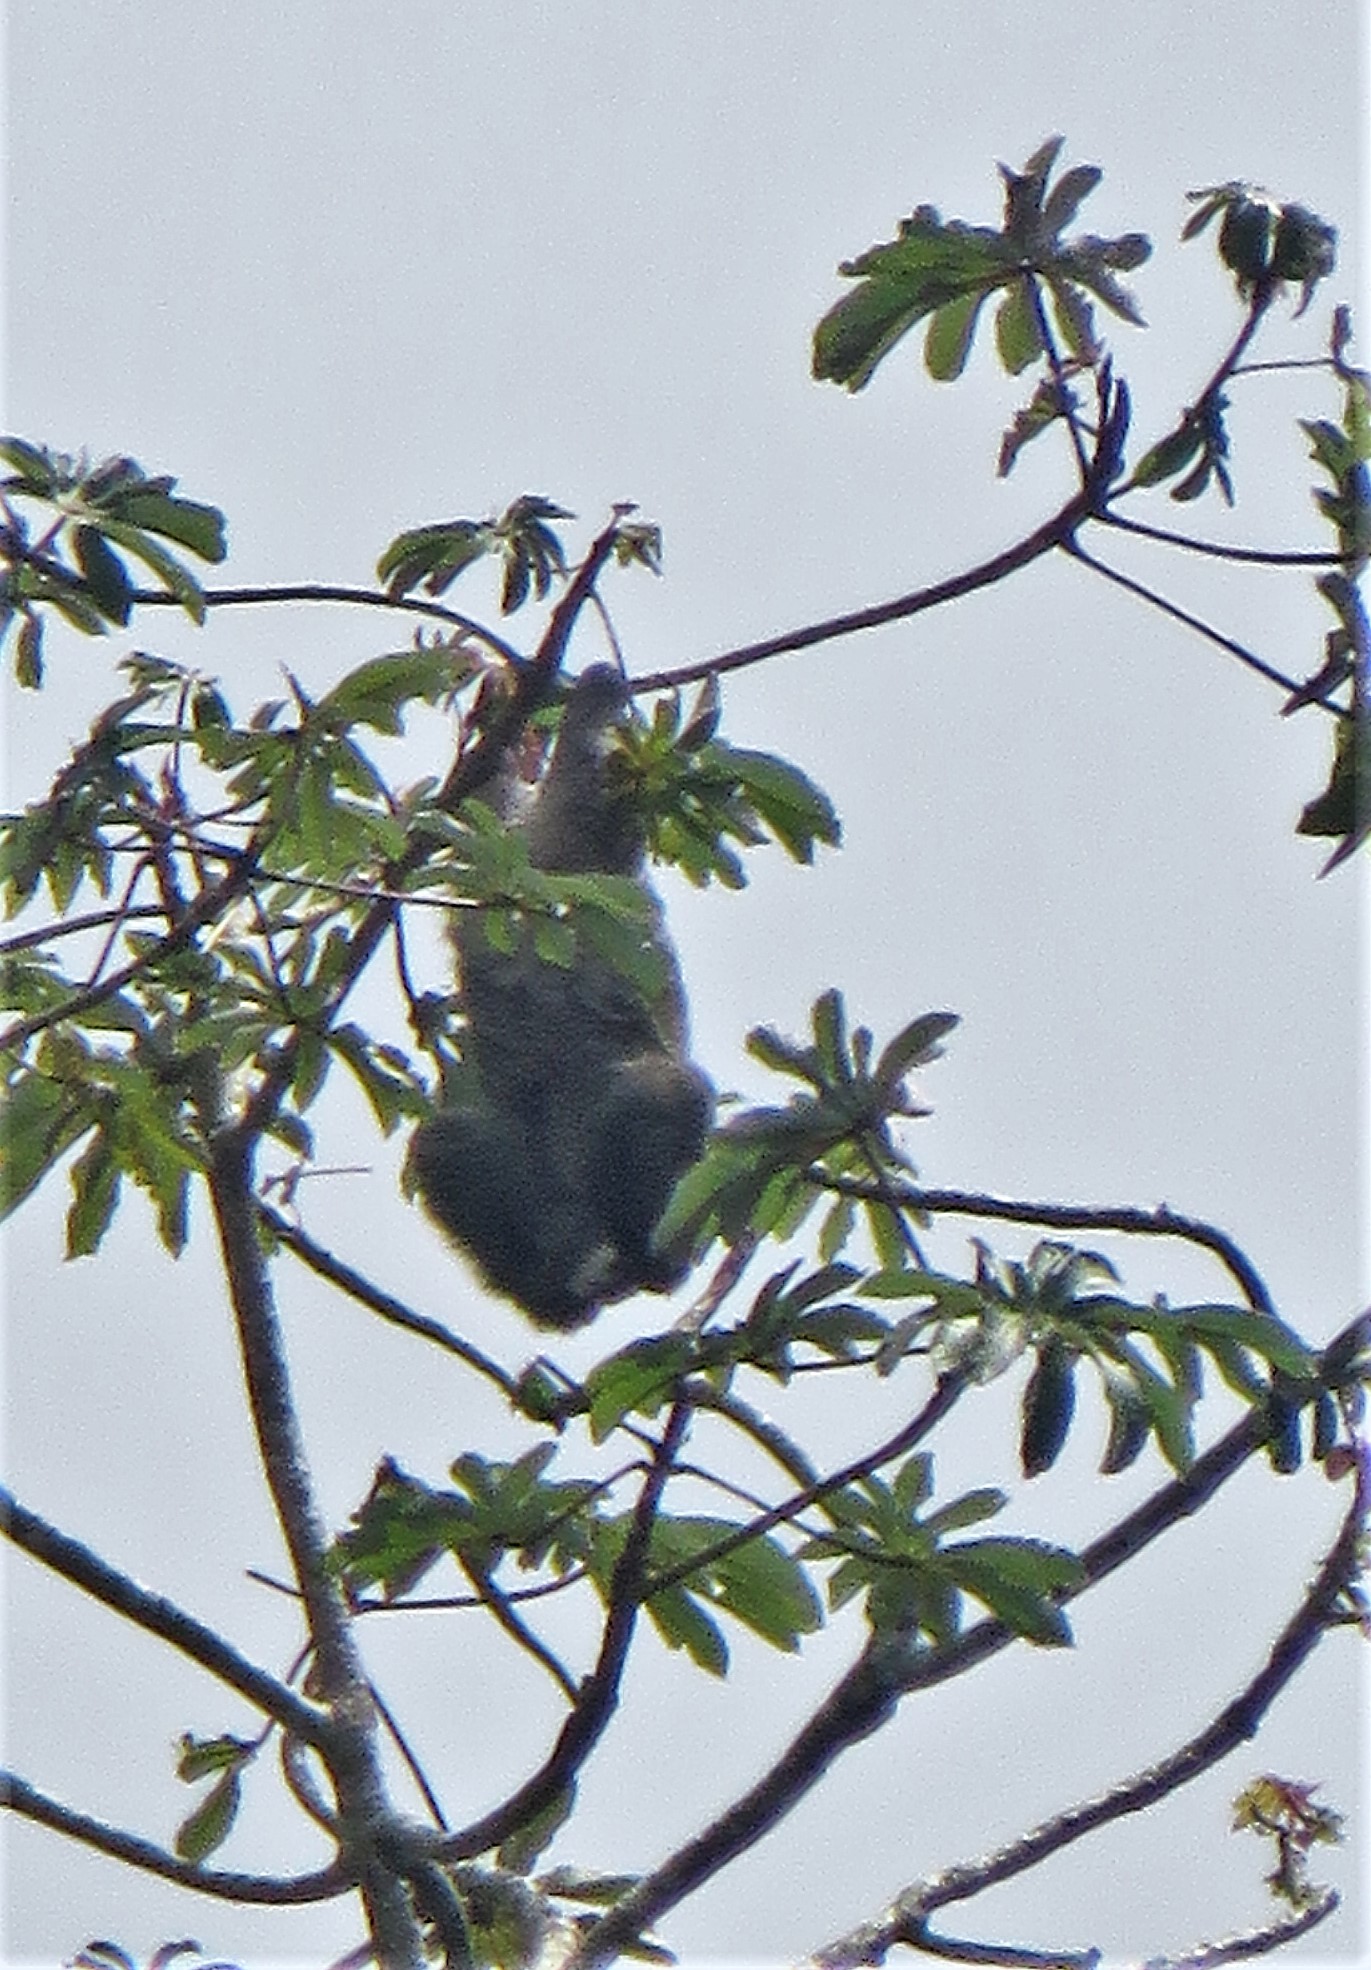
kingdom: Animalia
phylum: Chordata
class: Mammalia
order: Pilosa
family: Bradypodidae
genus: Bradypus
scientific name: Bradypus variegatus
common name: Brown-throated three-toed sloth
